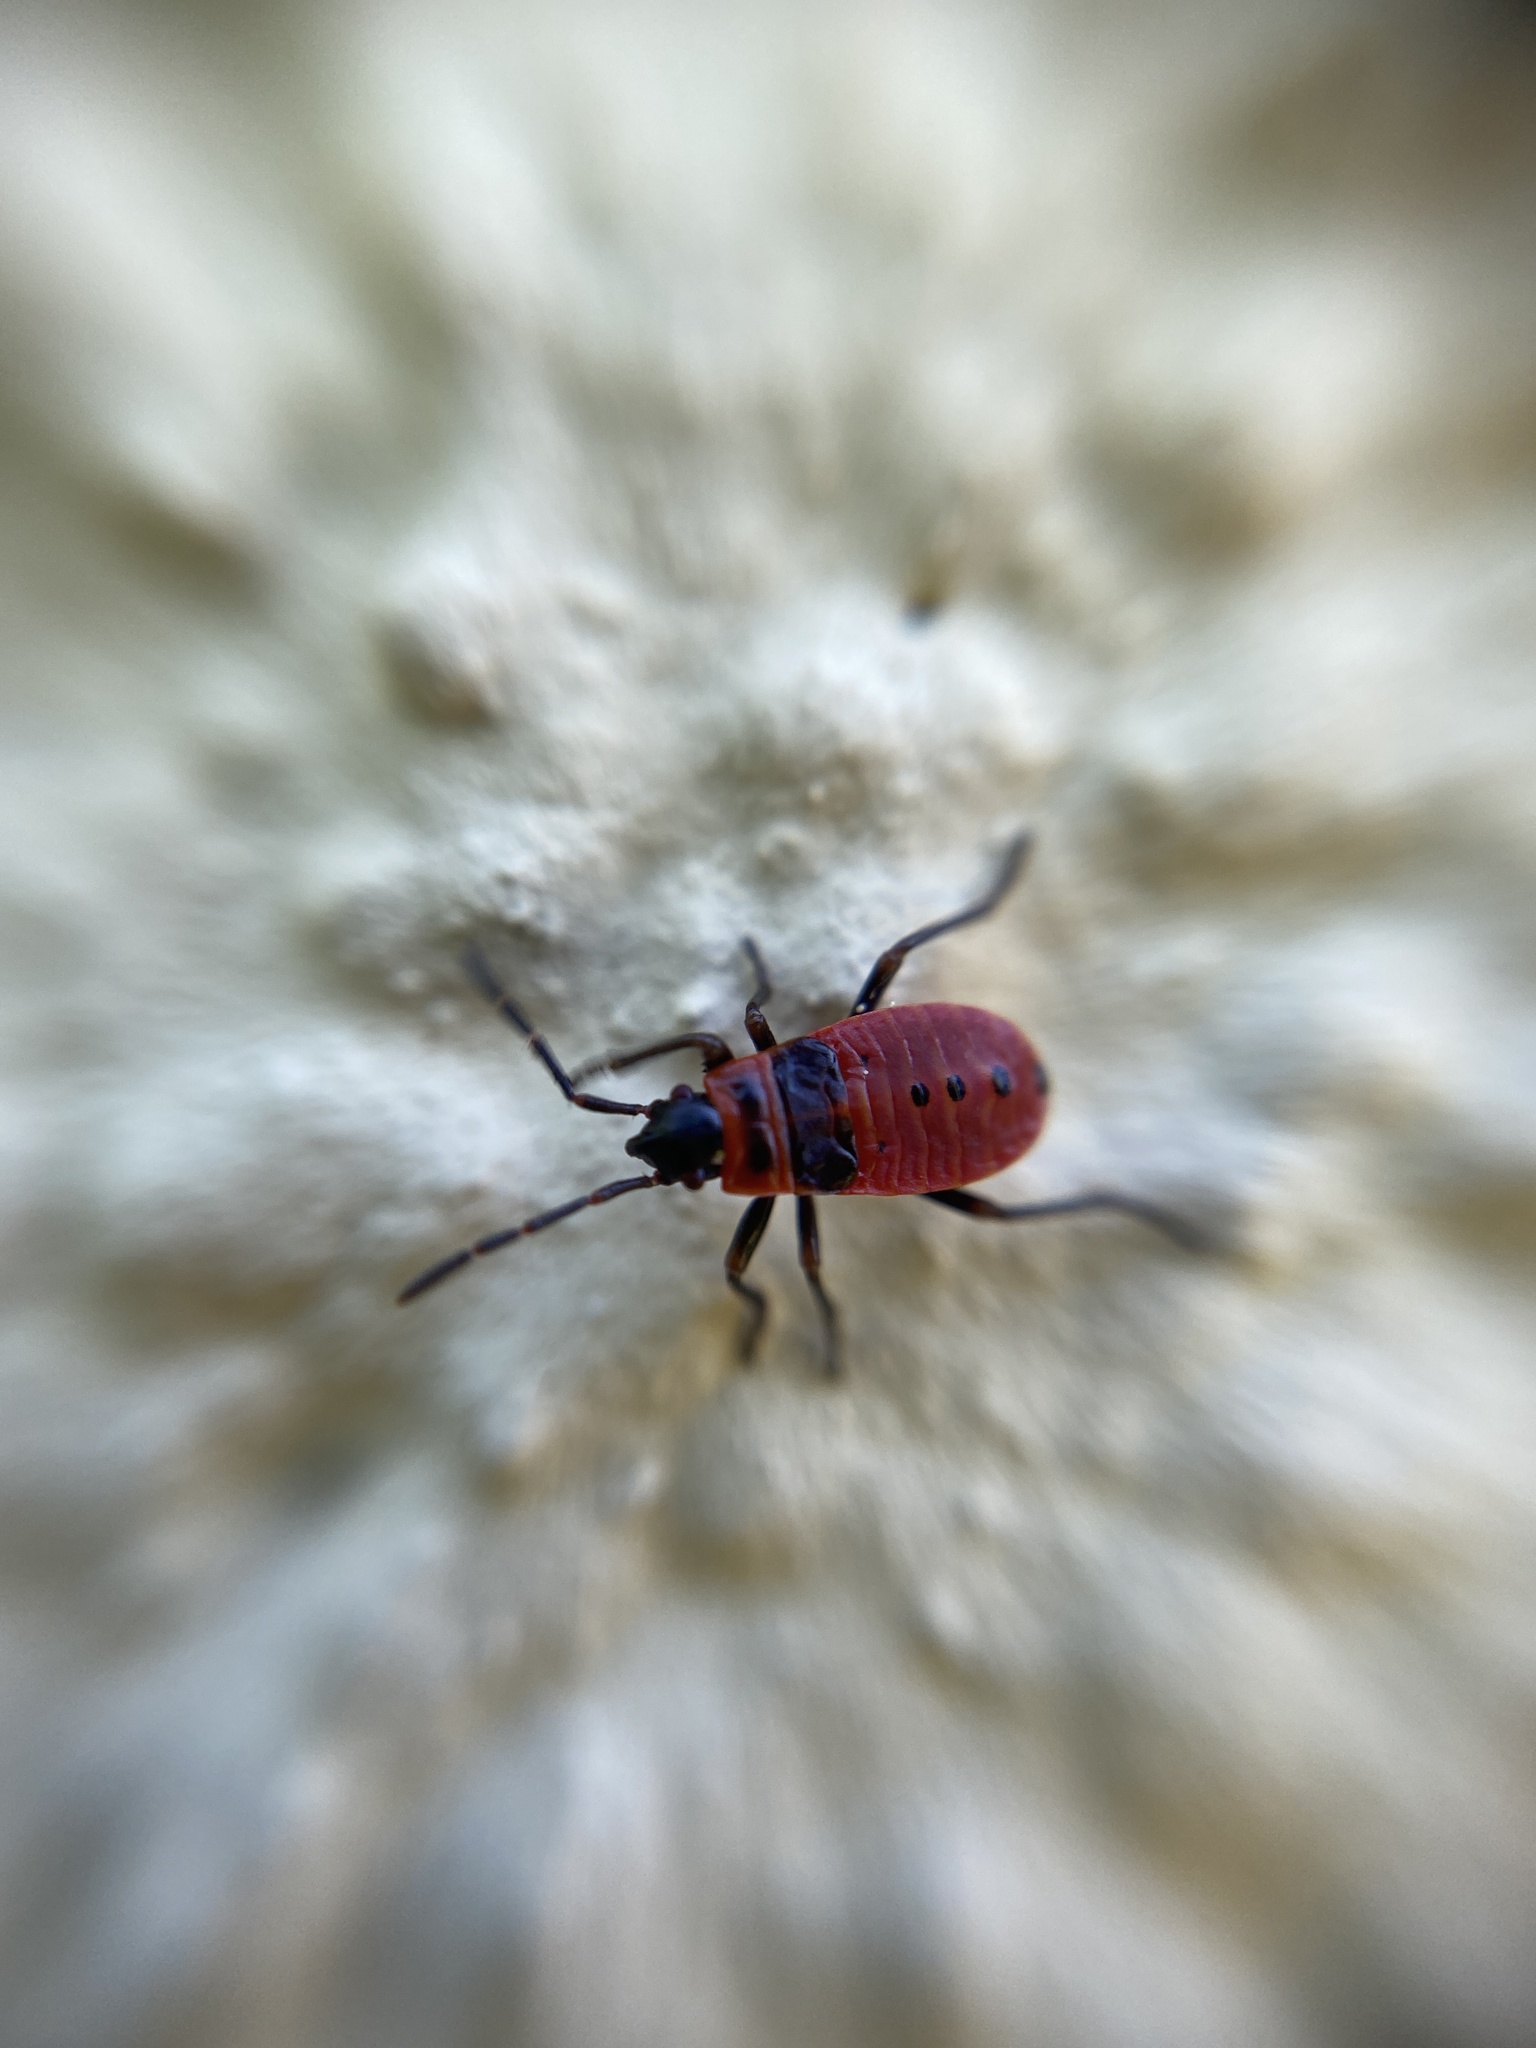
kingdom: Animalia
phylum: Arthropoda
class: Insecta
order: Hemiptera
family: Pyrrhocoridae
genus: Pyrrhocoris
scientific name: Pyrrhocoris apterus
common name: Firebug
